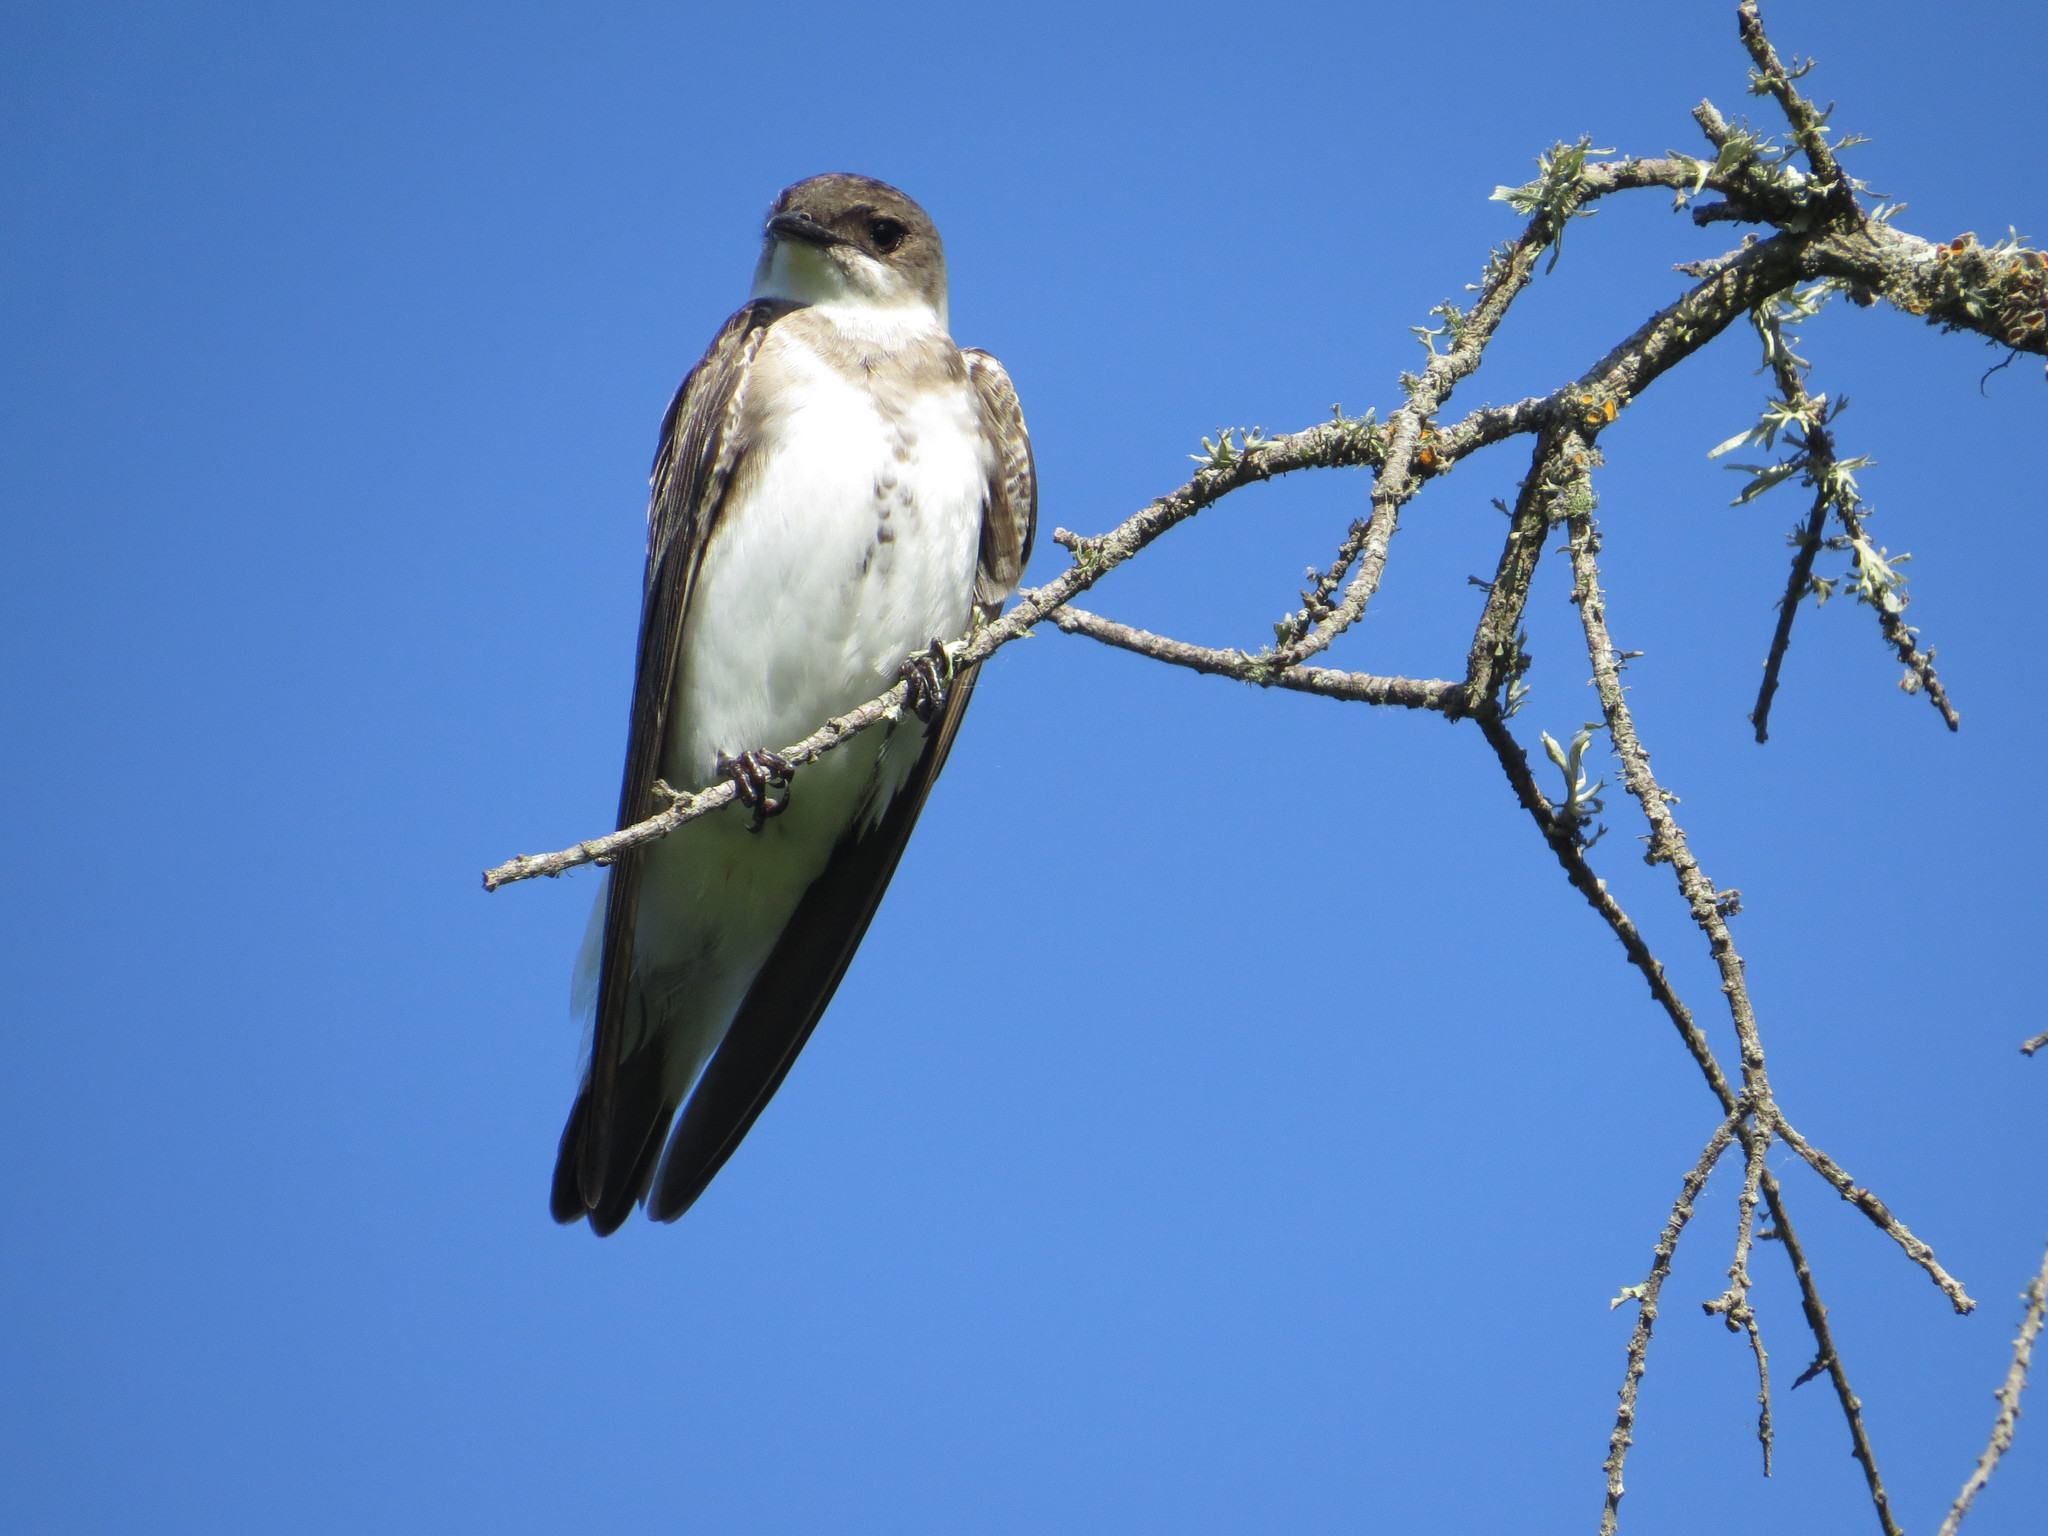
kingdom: Animalia
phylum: Chordata
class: Aves
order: Passeriformes
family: Hirundinidae
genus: Progne
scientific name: Progne tapera
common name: Brown-chested martin
